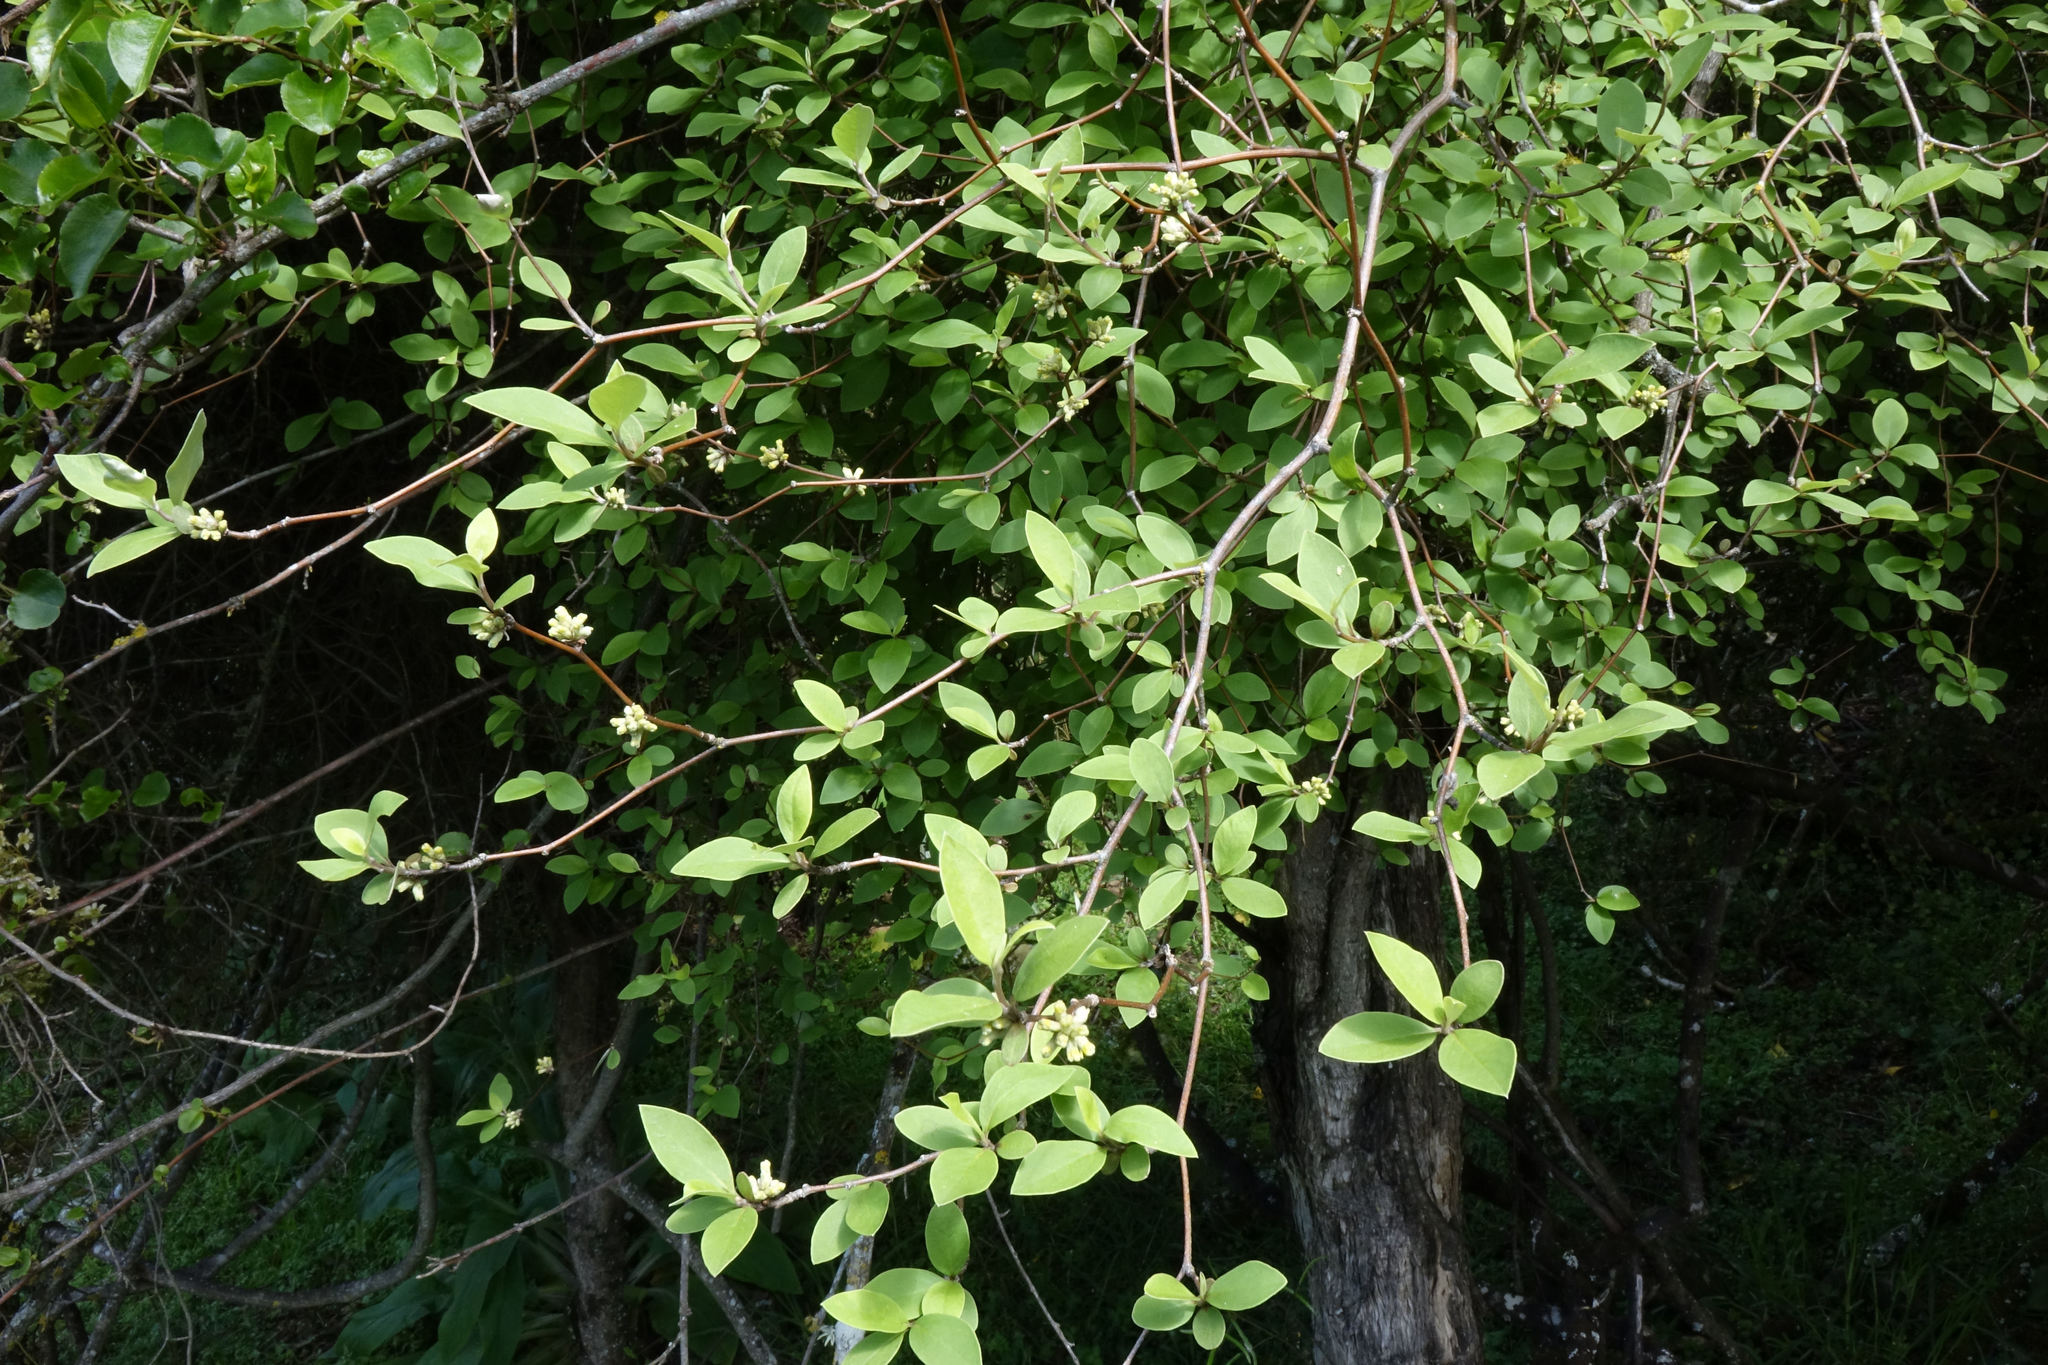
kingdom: Plantae
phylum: Tracheophyta
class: Magnoliopsida
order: Asterales
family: Asteraceae
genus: Olearia
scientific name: Olearia fragrantissima
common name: Fragrant tree daisy
